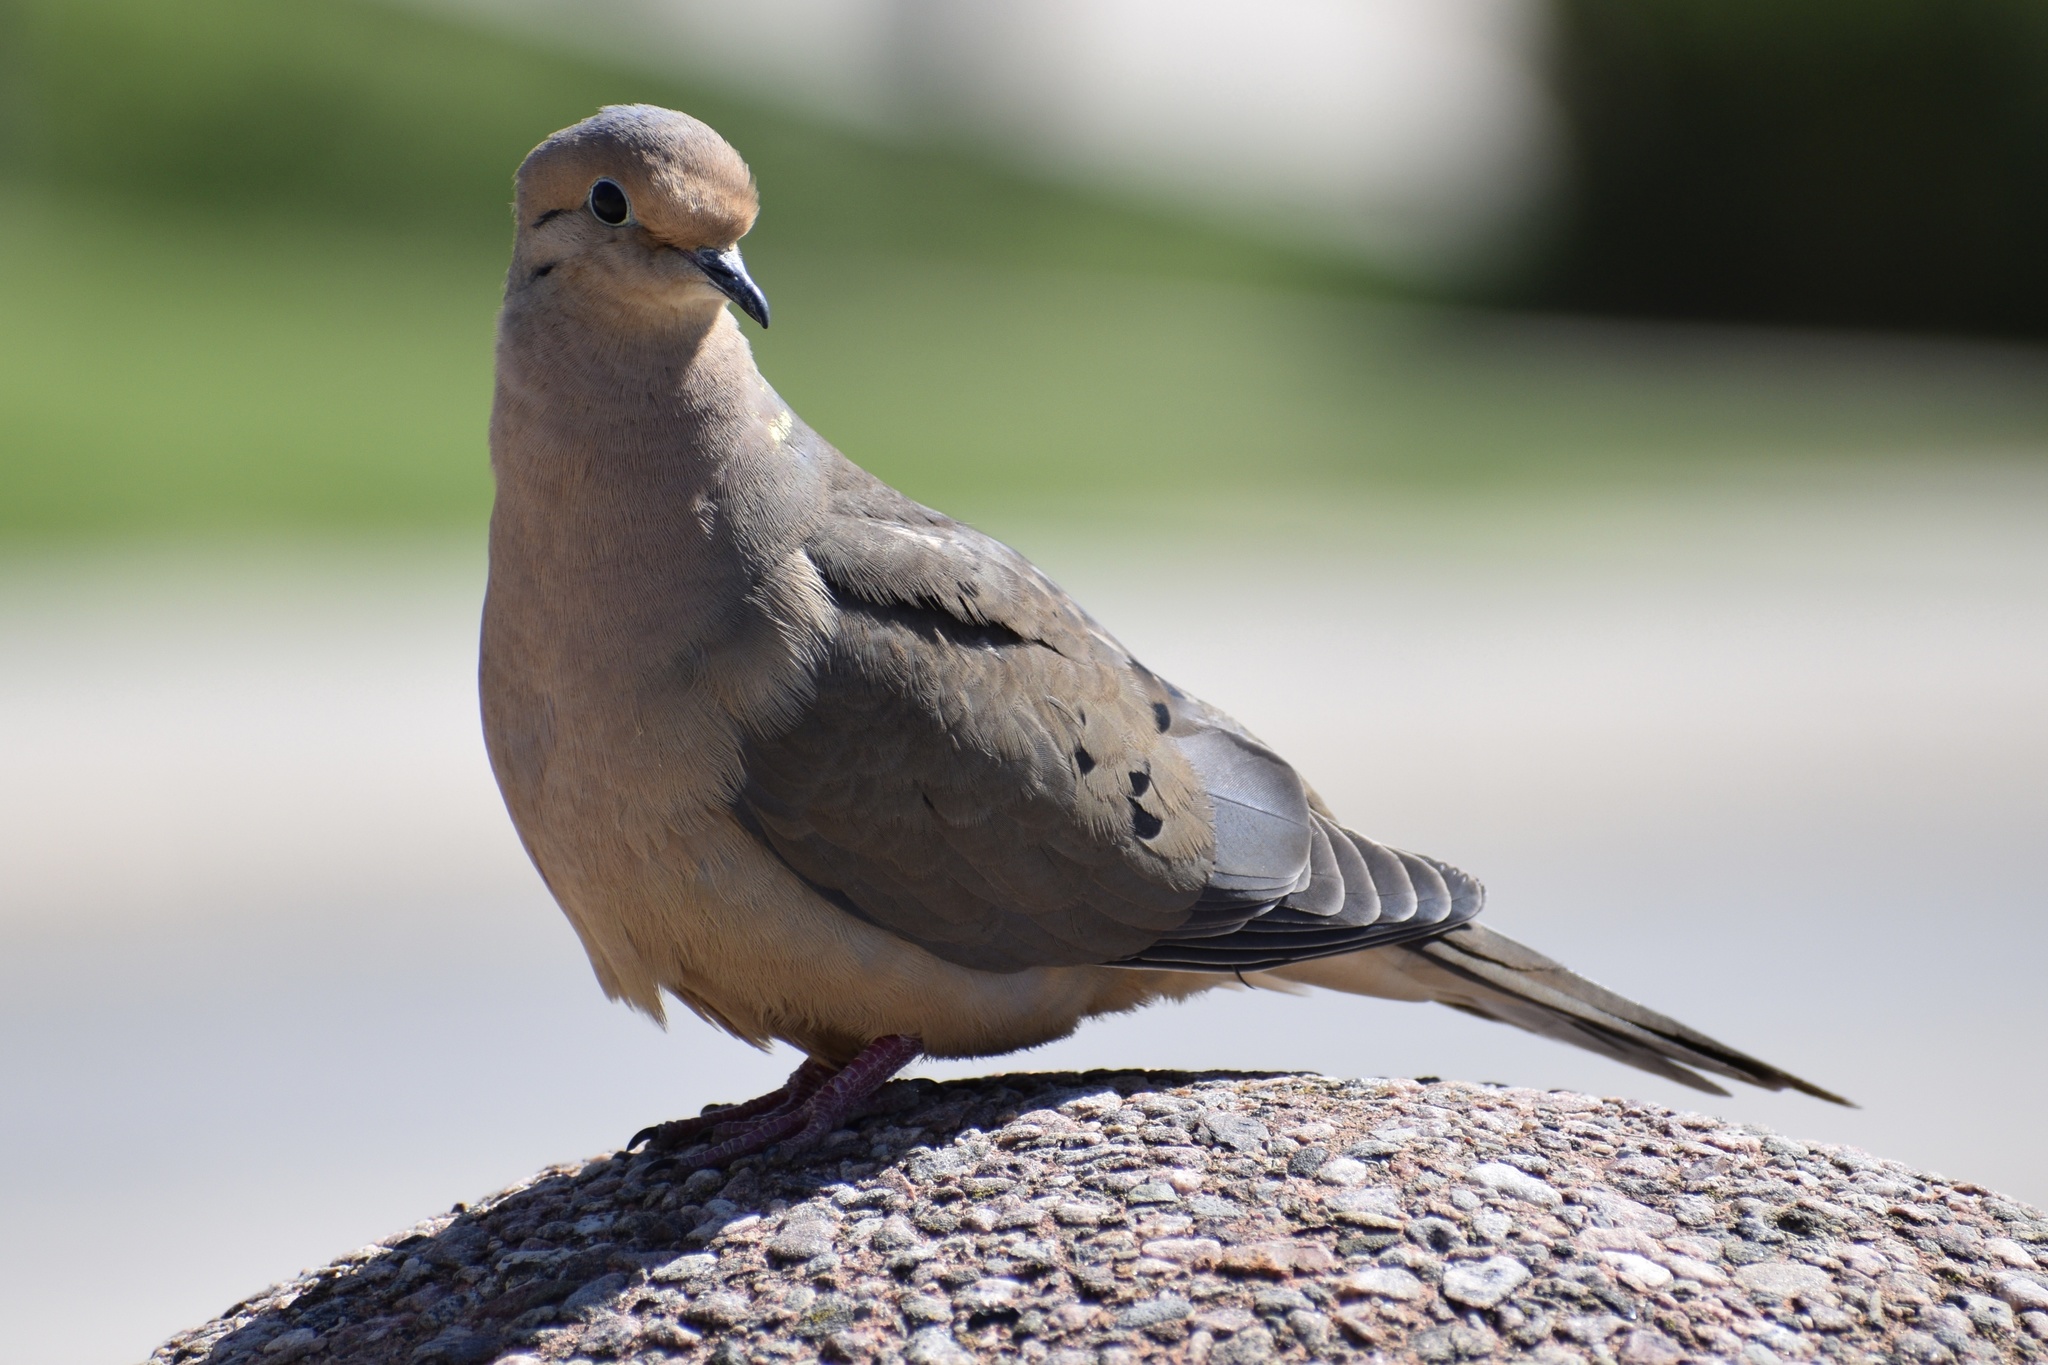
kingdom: Animalia
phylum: Chordata
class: Aves
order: Columbiformes
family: Columbidae
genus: Zenaida
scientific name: Zenaida macroura
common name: Mourning dove
